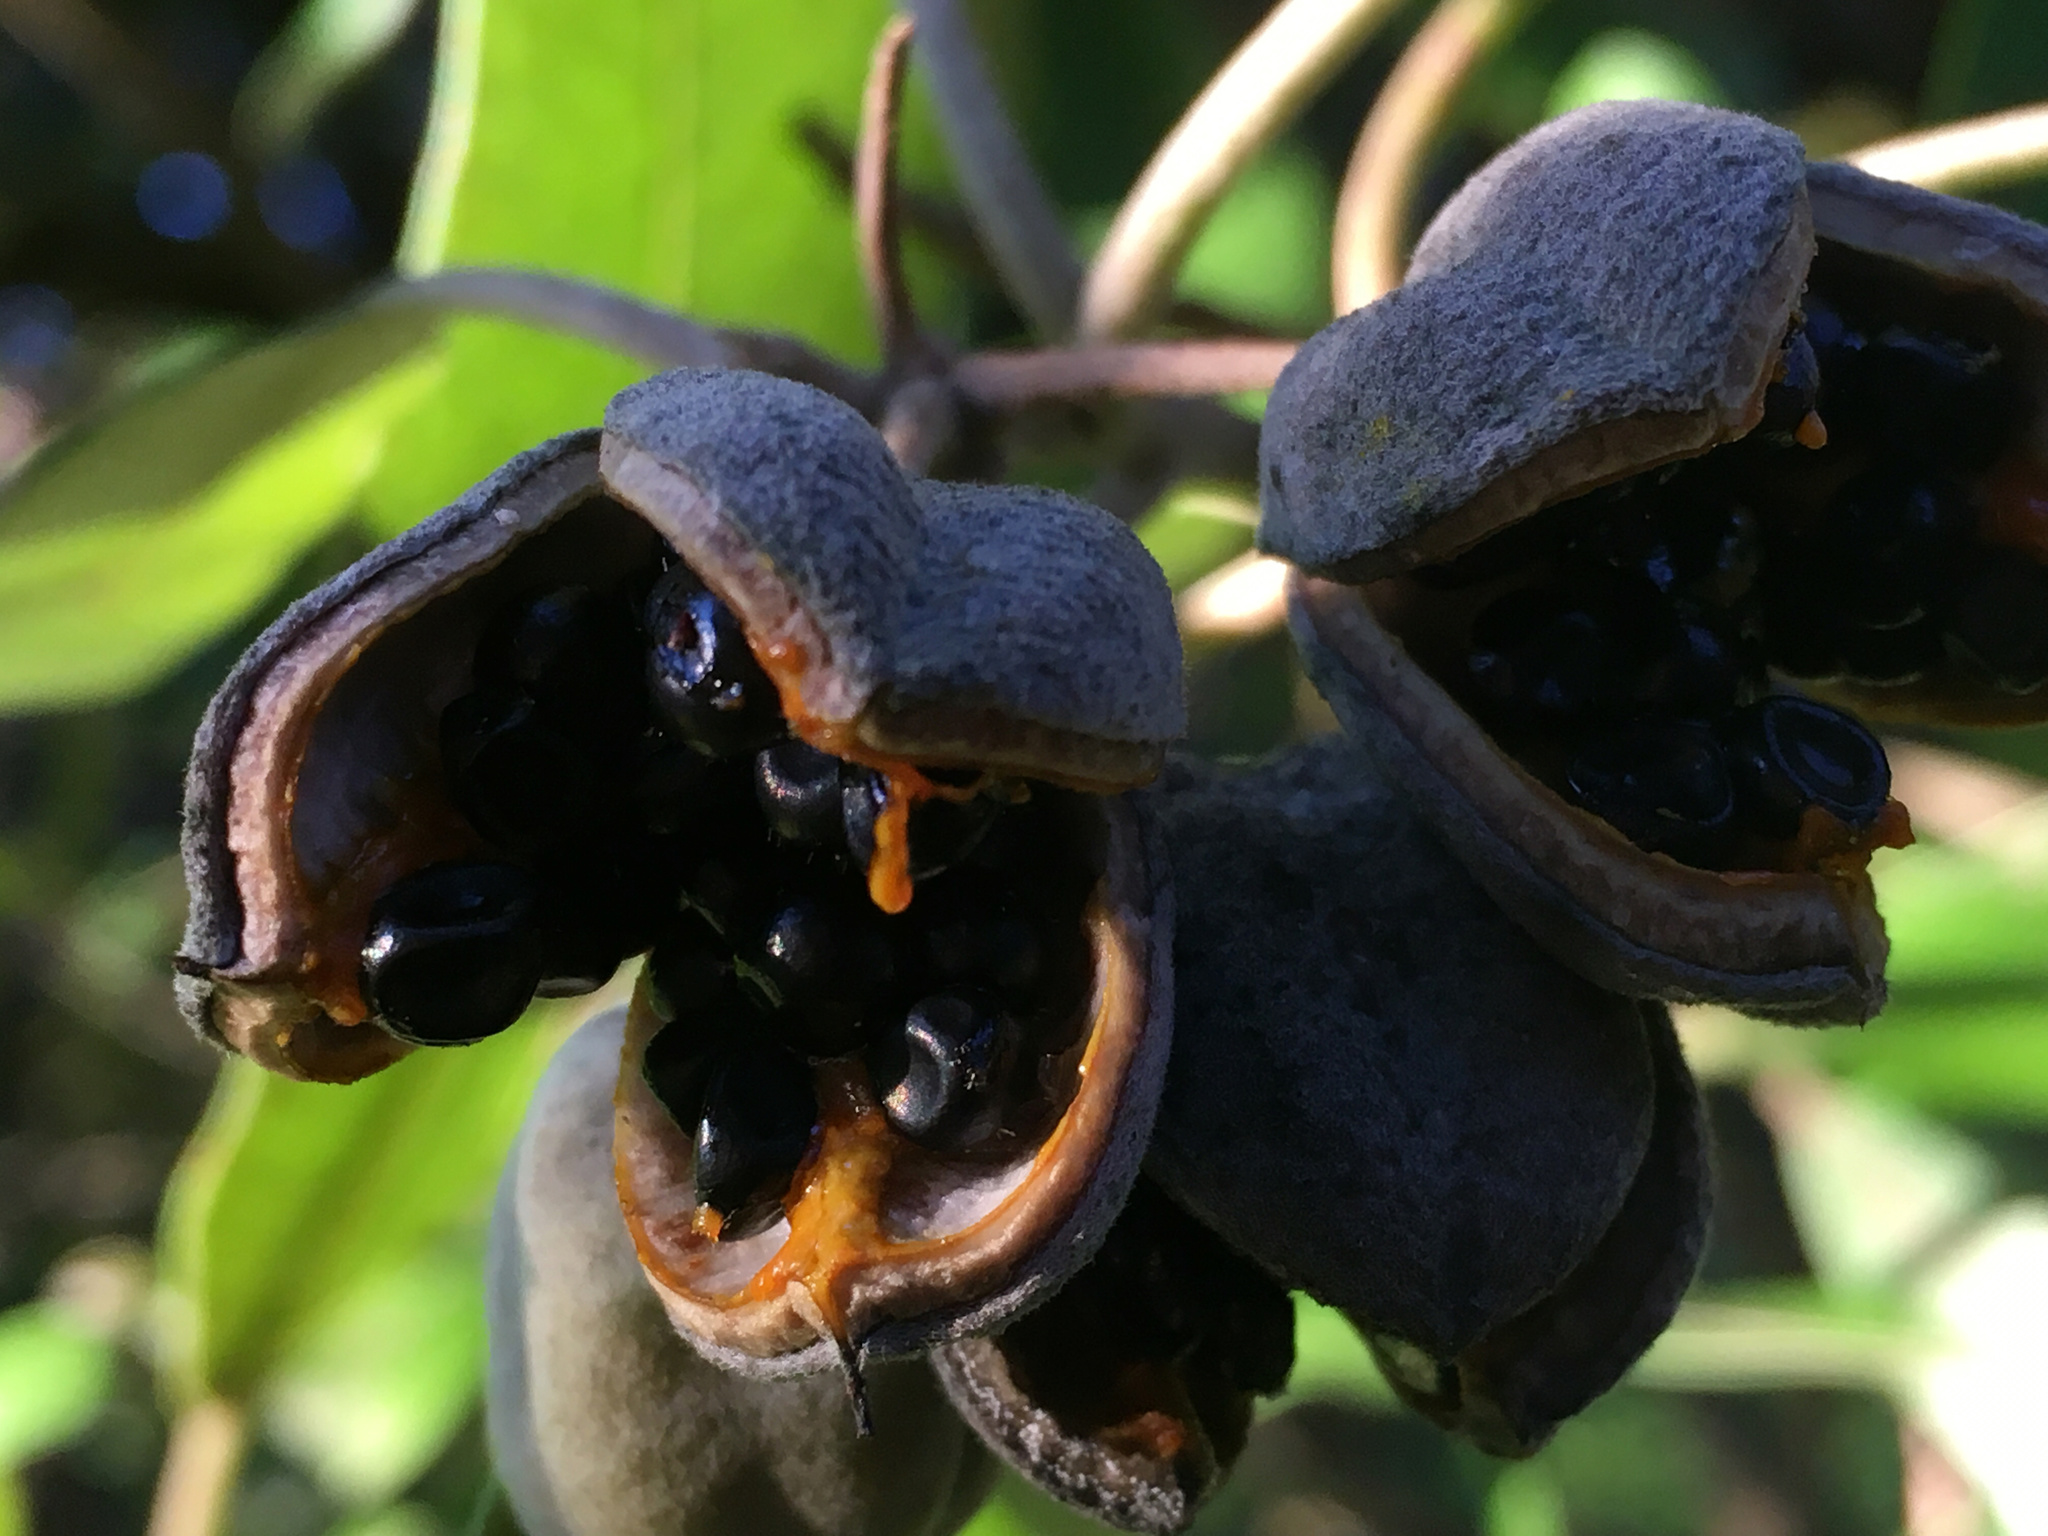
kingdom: Plantae
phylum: Tracheophyta
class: Magnoliopsida
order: Apiales
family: Pittosporaceae
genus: Pittosporum
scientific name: Pittosporum ralphii
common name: Ralph's desertwillow
